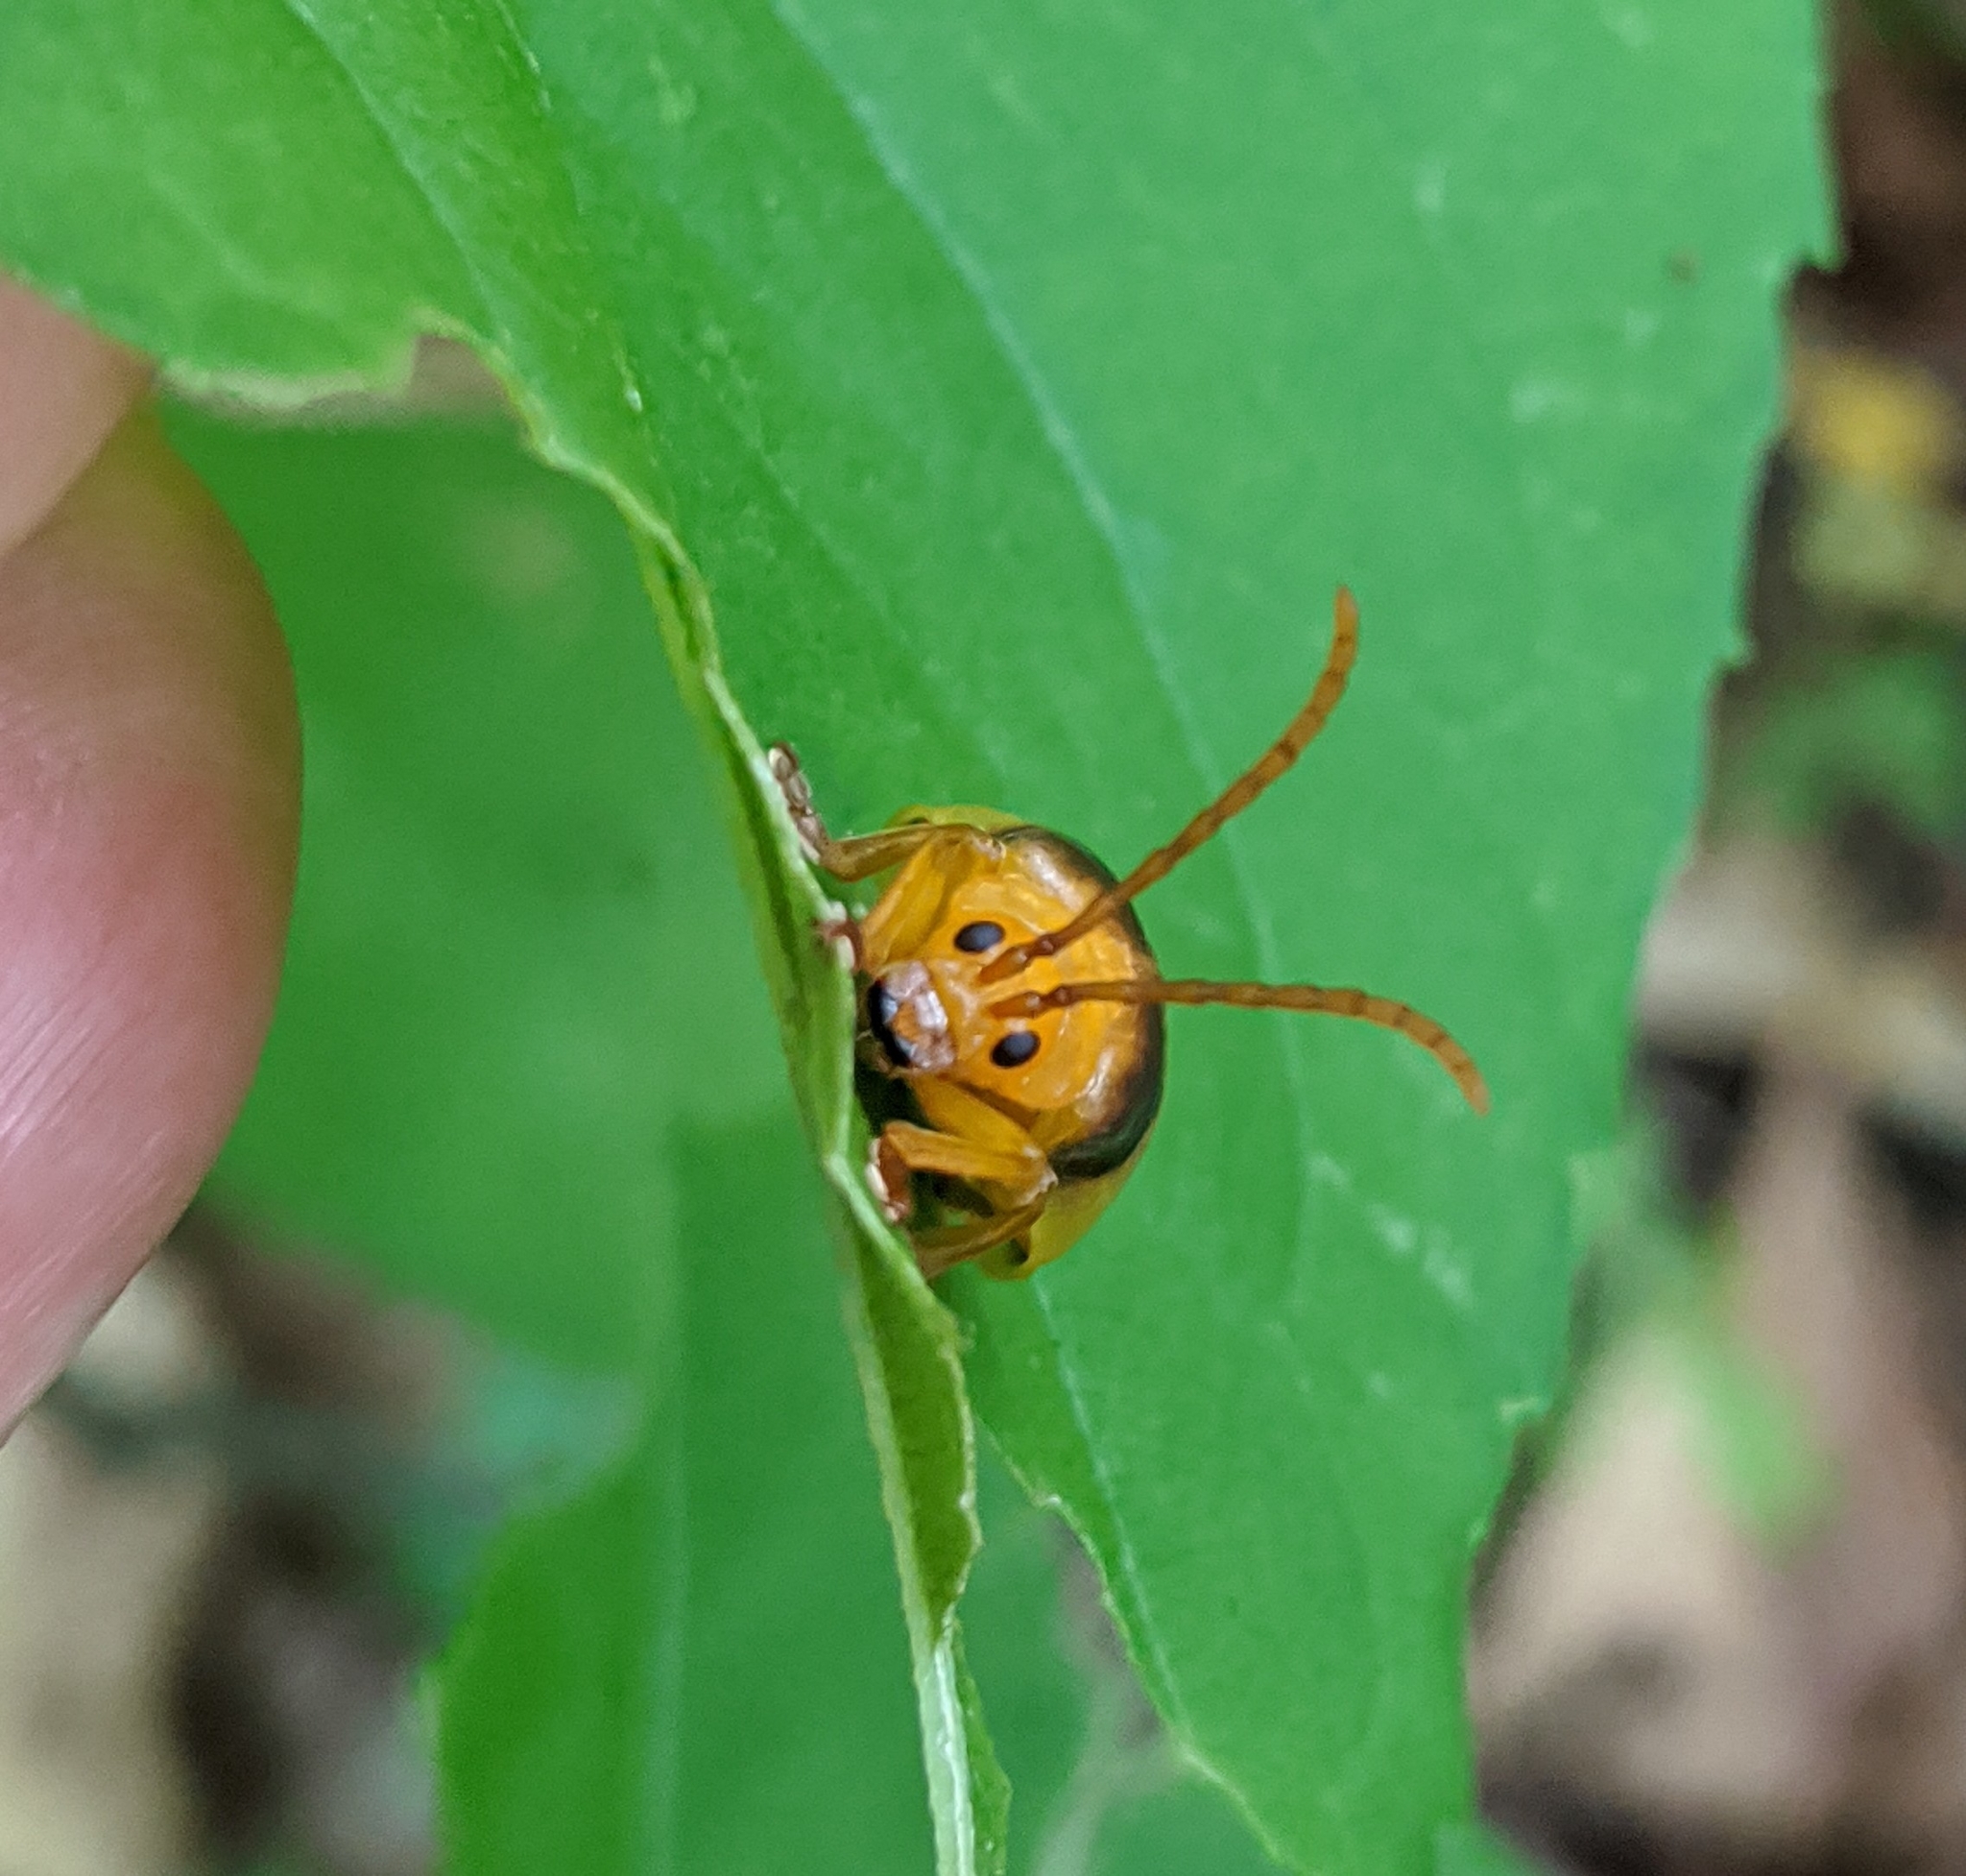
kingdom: Animalia
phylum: Arthropoda
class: Insecta
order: Coleoptera
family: Chrysomelidae
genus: Monocesta
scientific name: Monocesta coryli
